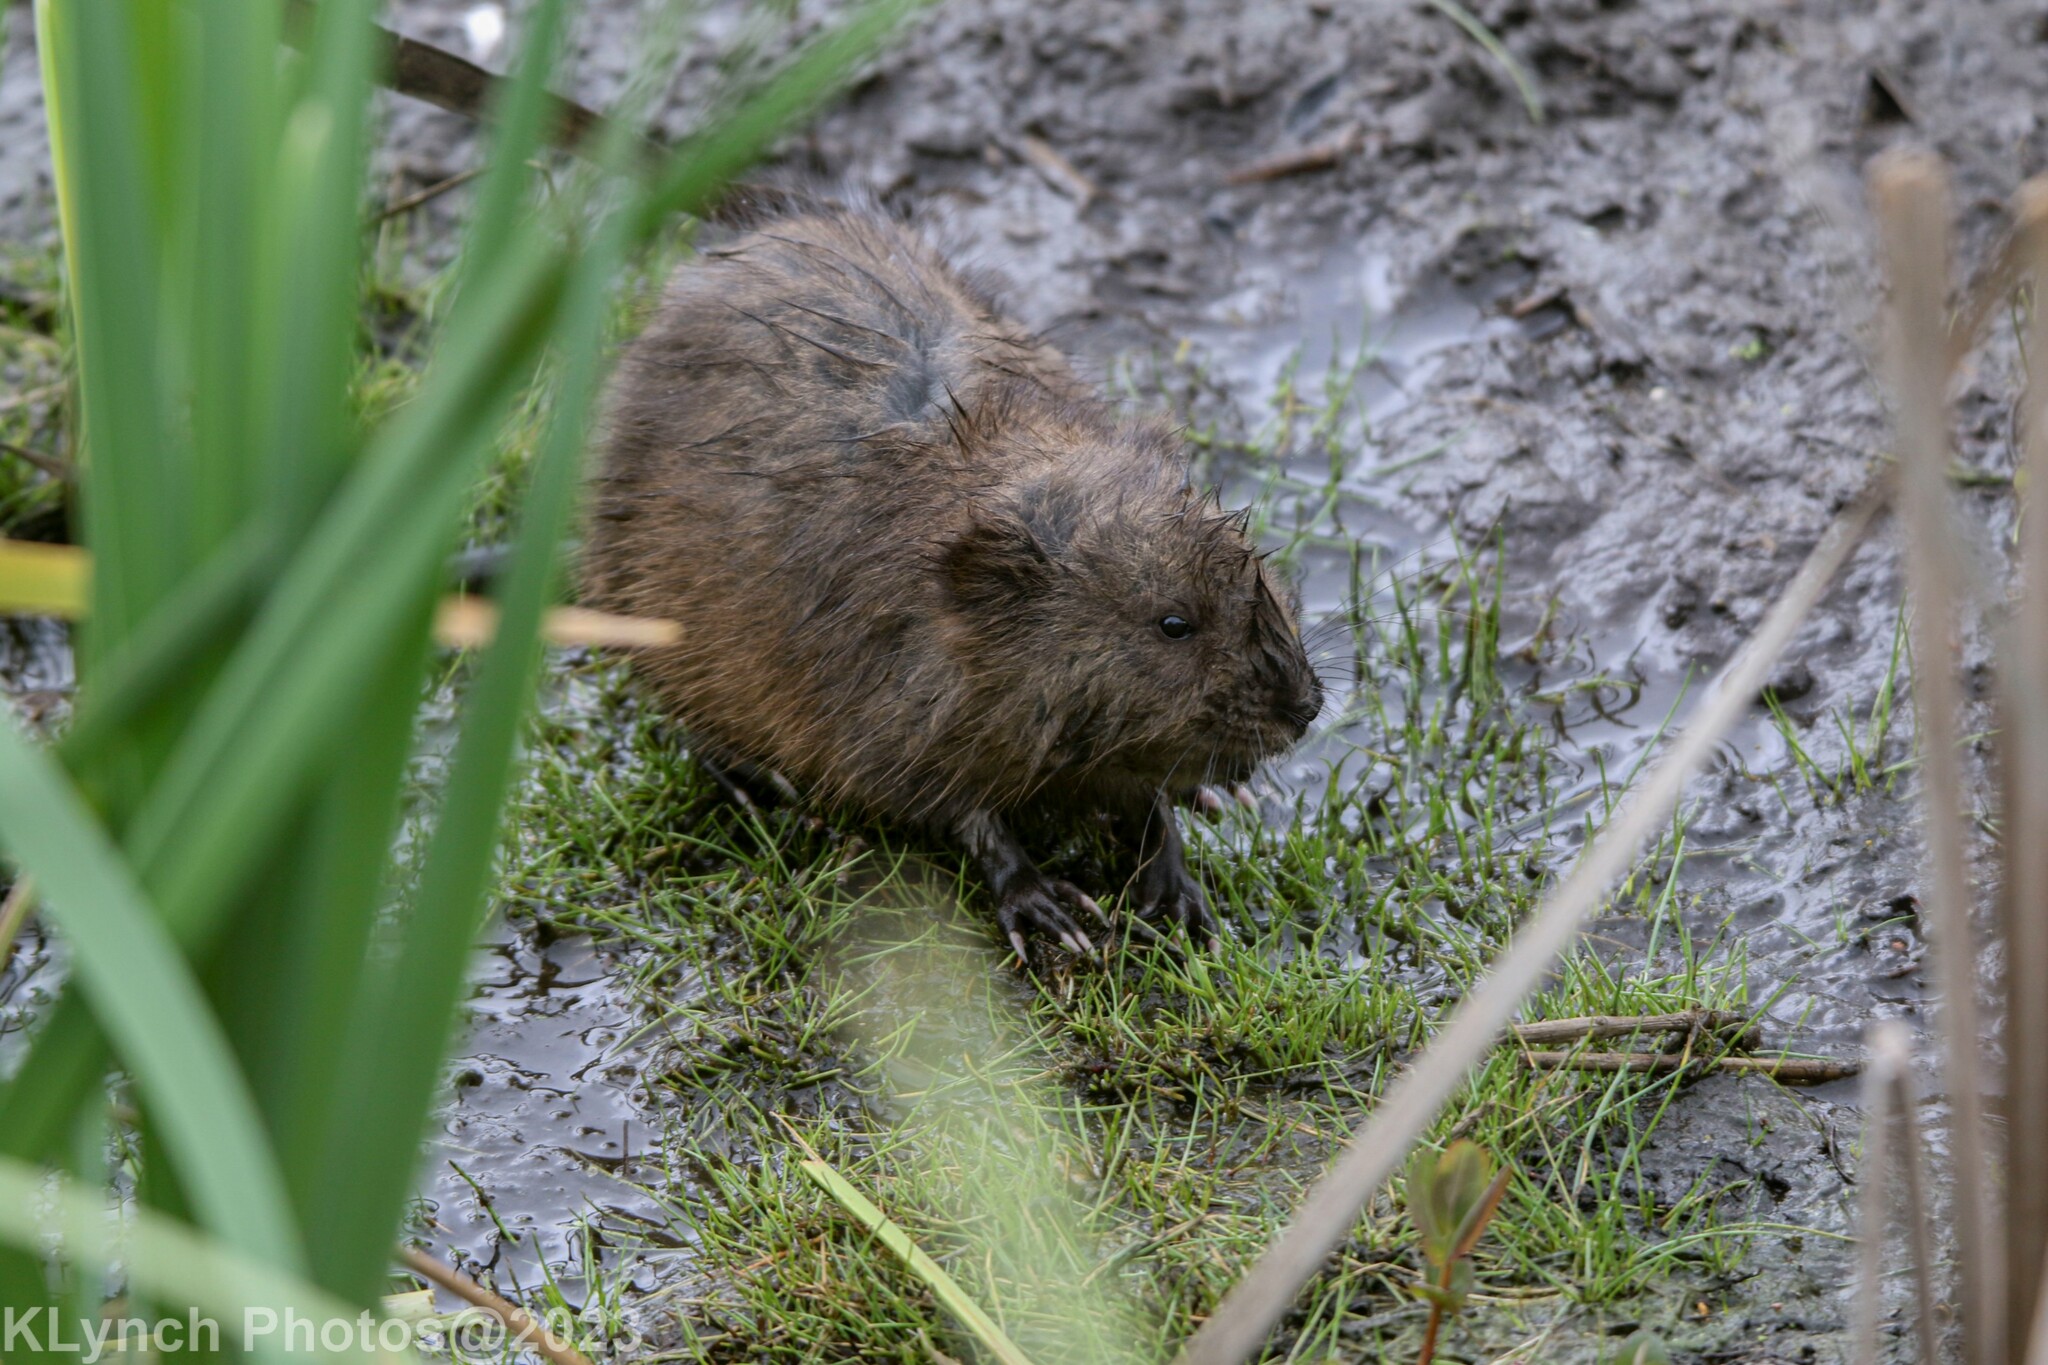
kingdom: Animalia
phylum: Chordata
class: Mammalia
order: Rodentia
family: Cricetidae
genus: Ondatra
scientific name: Ondatra zibethicus
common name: Muskrat
